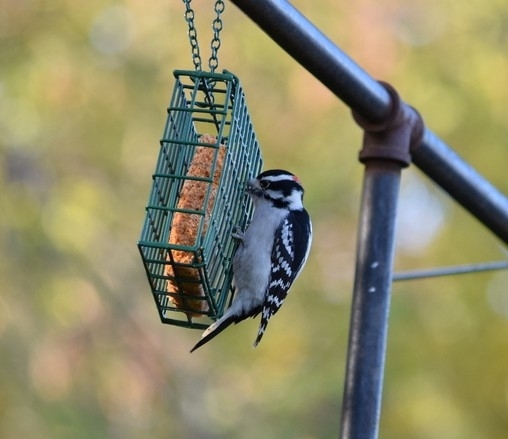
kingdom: Animalia
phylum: Chordata
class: Aves
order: Piciformes
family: Picidae
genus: Dryobates
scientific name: Dryobates pubescens
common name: Downy woodpecker
